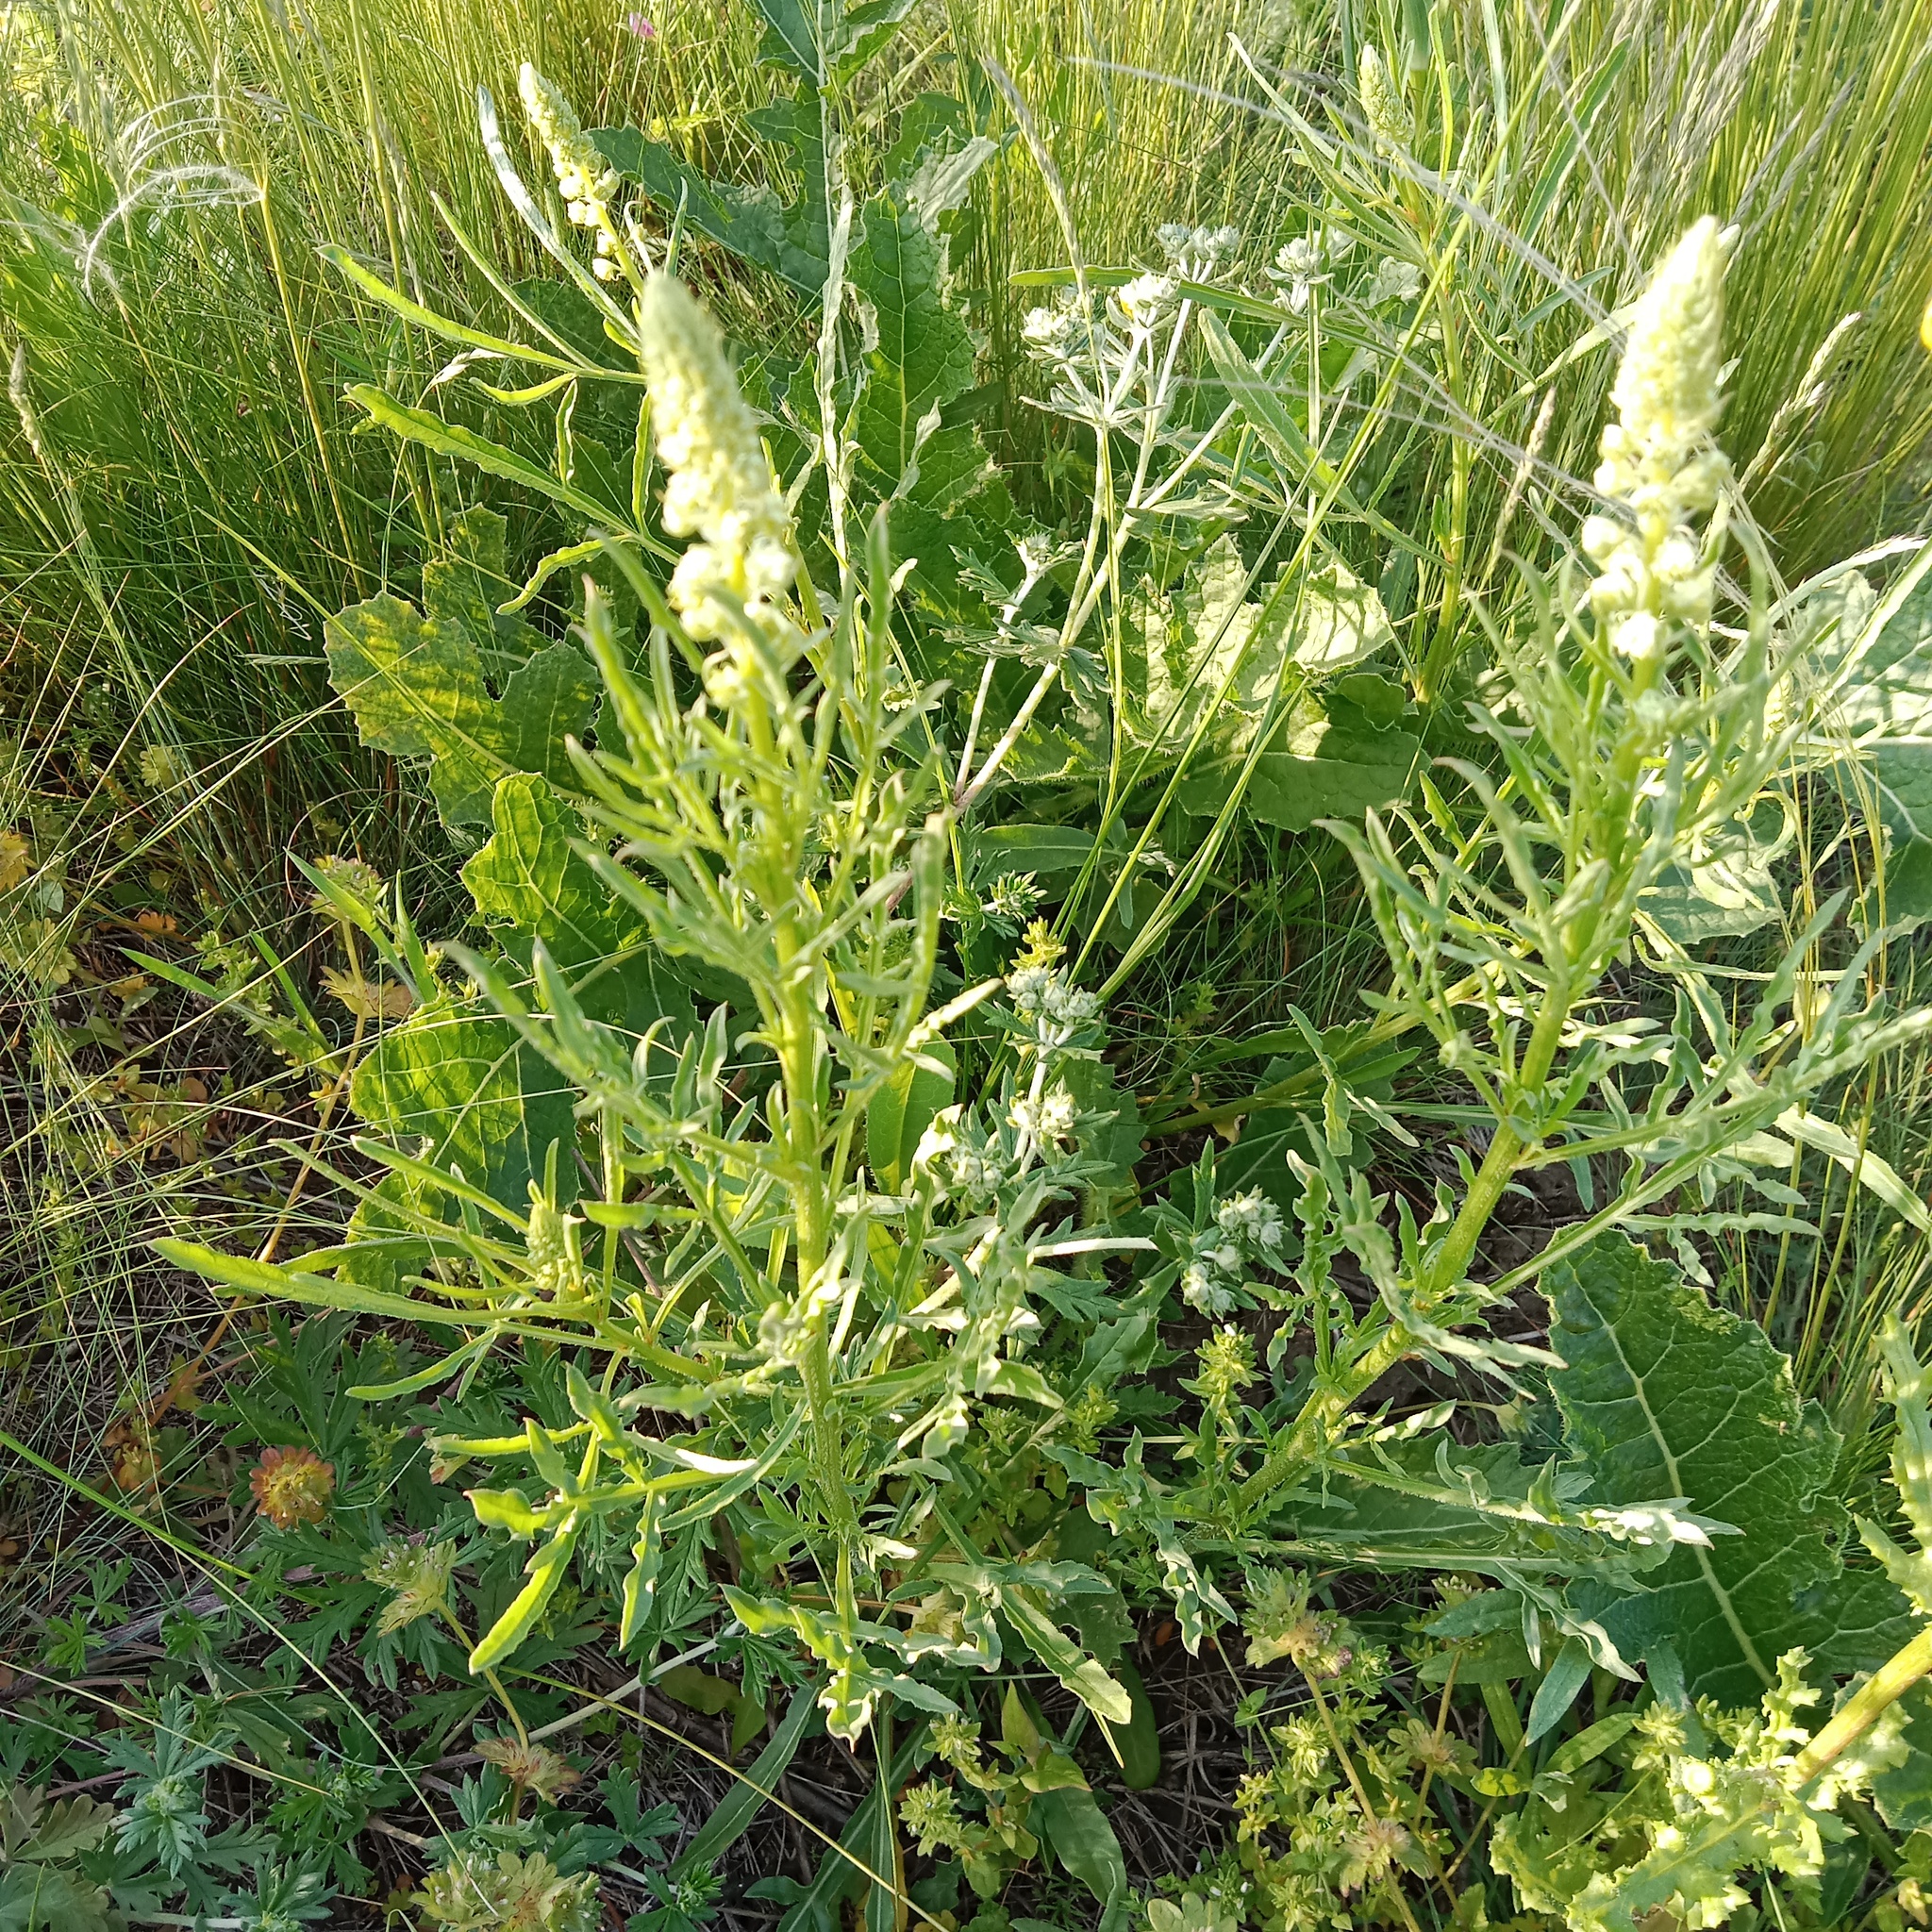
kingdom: Plantae
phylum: Tracheophyta
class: Magnoliopsida
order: Brassicales
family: Resedaceae
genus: Reseda
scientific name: Reseda lutea
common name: Wild mignonette
